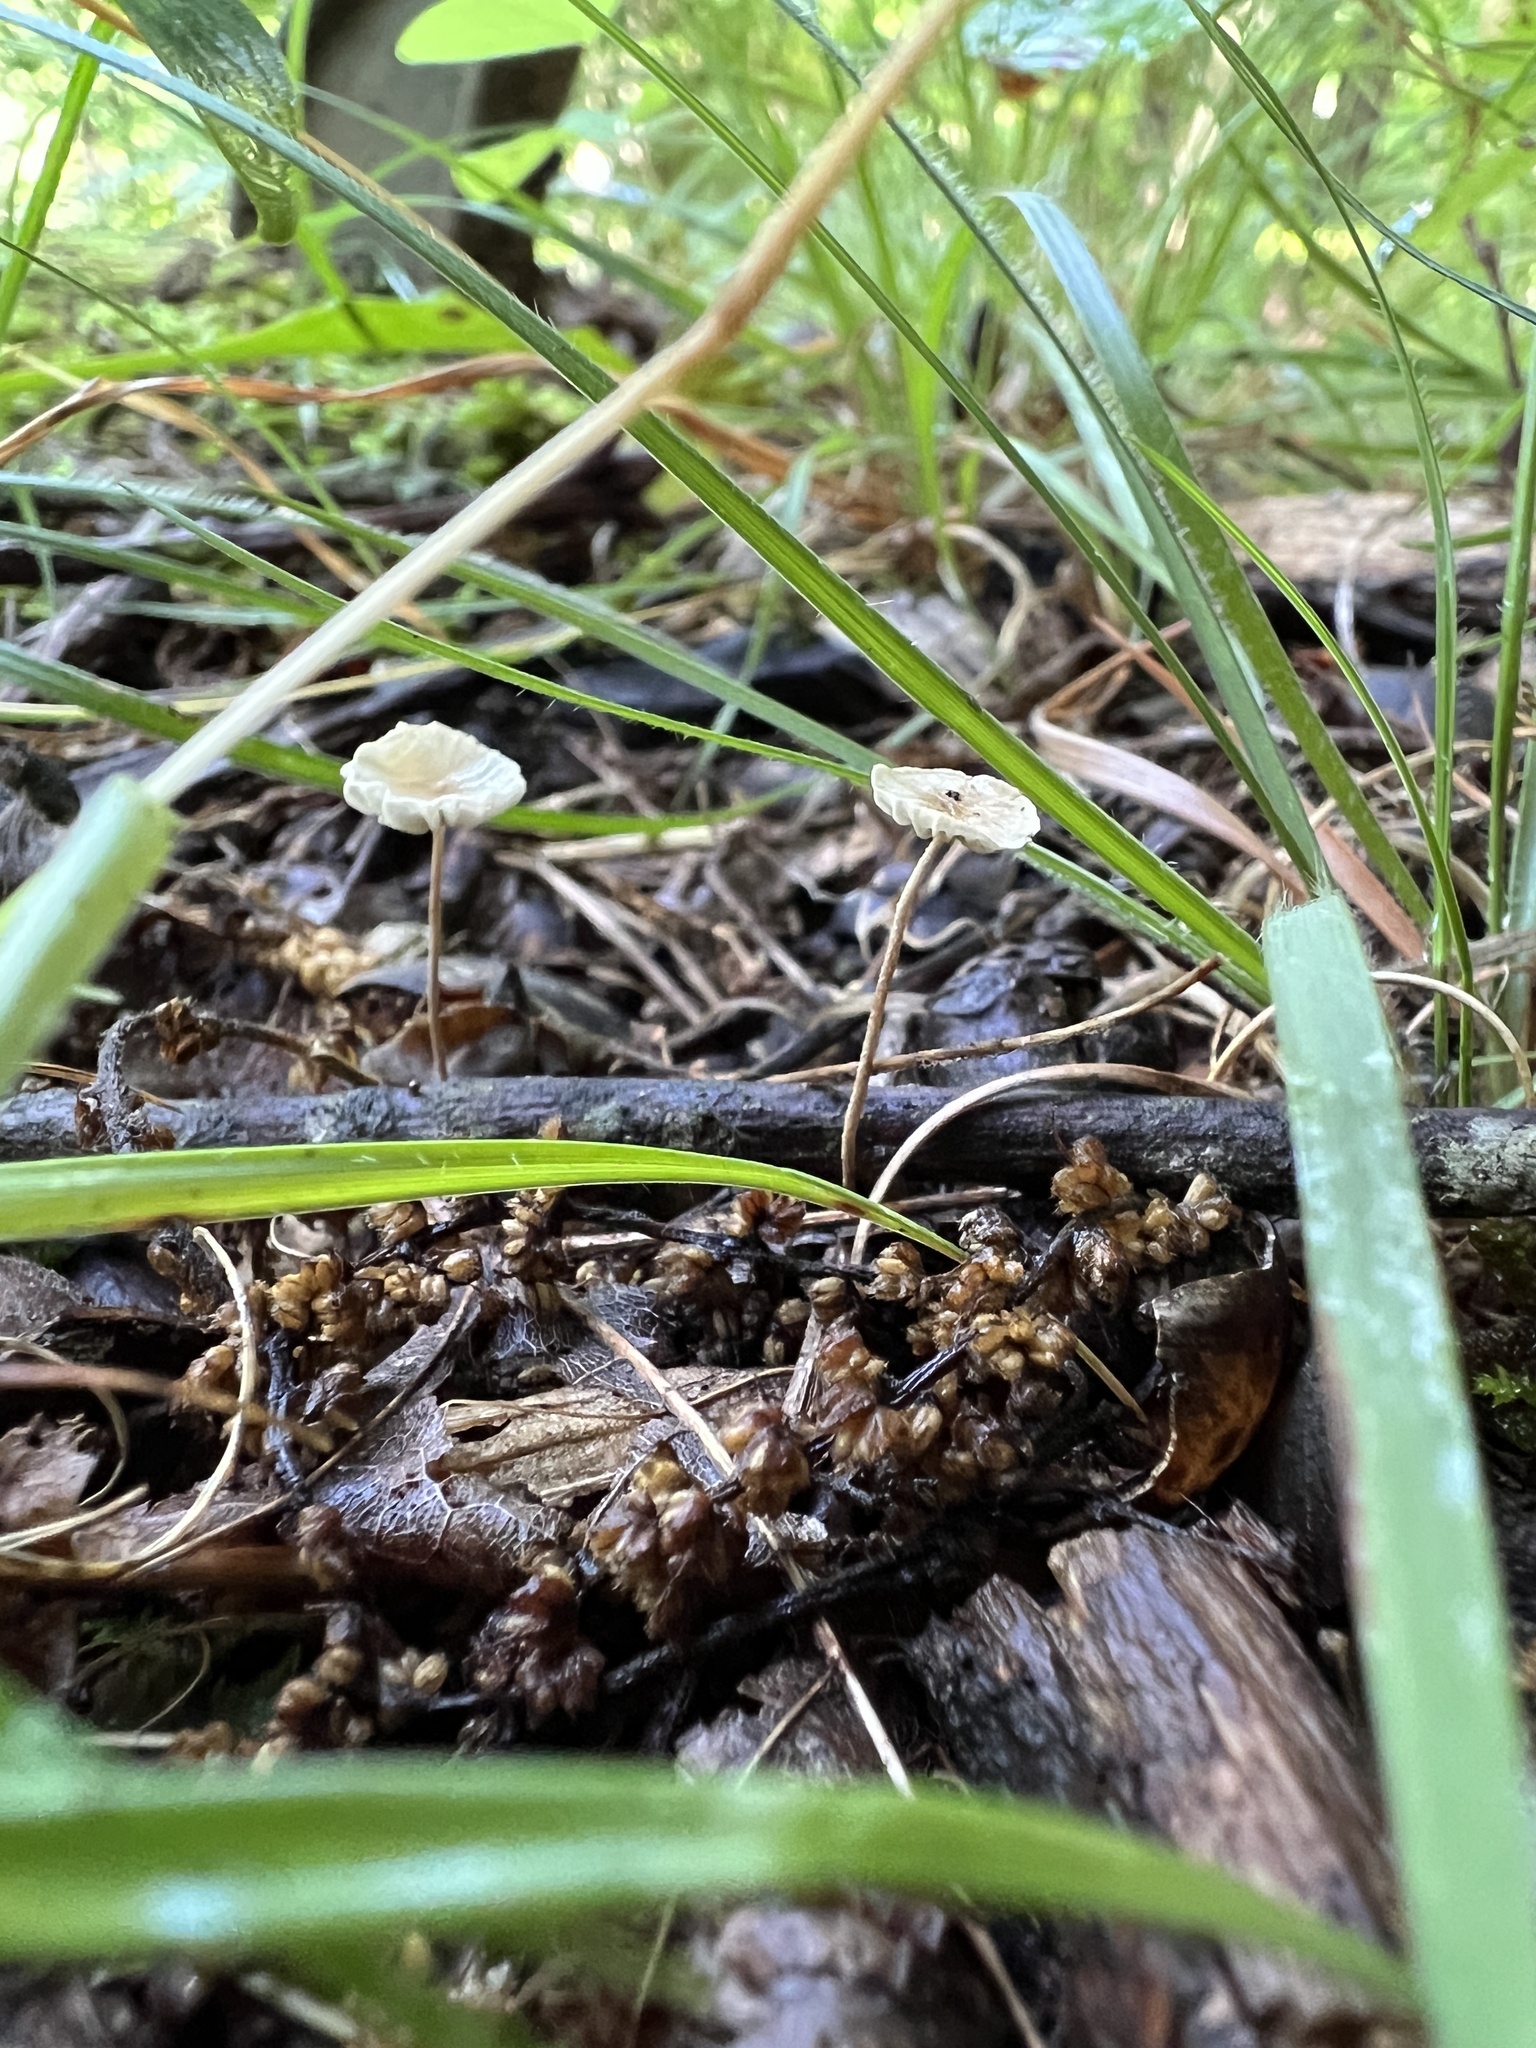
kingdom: Fungi
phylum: Basidiomycota
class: Agaricomycetes
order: Agaricales
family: Omphalotaceae
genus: Mycetinis
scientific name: Mycetinis opacus
